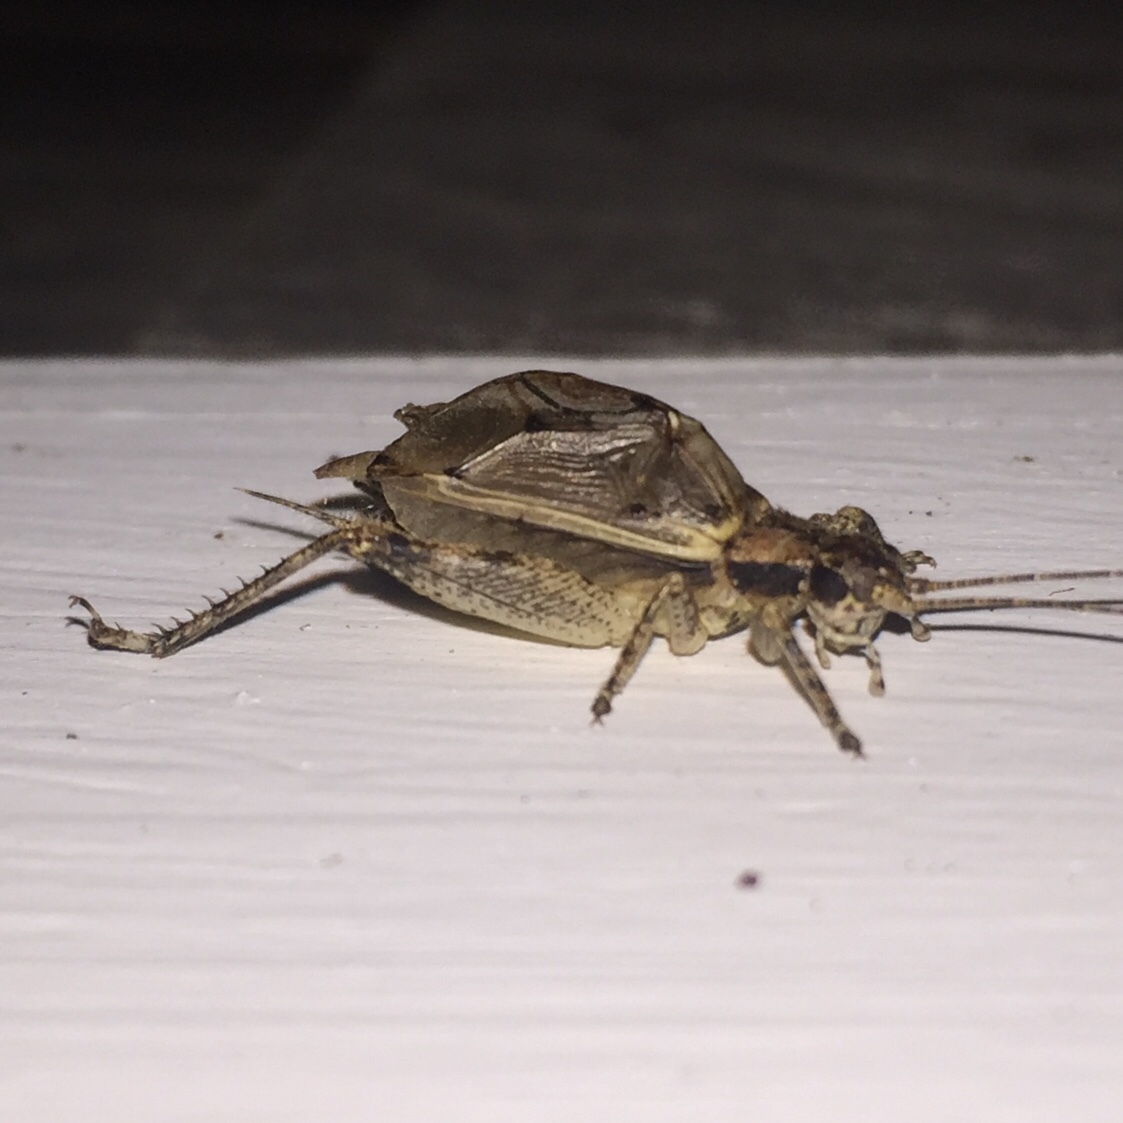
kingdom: Animalia
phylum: Arthropoda
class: Insecta
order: Orthoptera
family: Gryllidae
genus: Hapithus
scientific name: Hapithus saltator
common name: Jumping bush cricket
